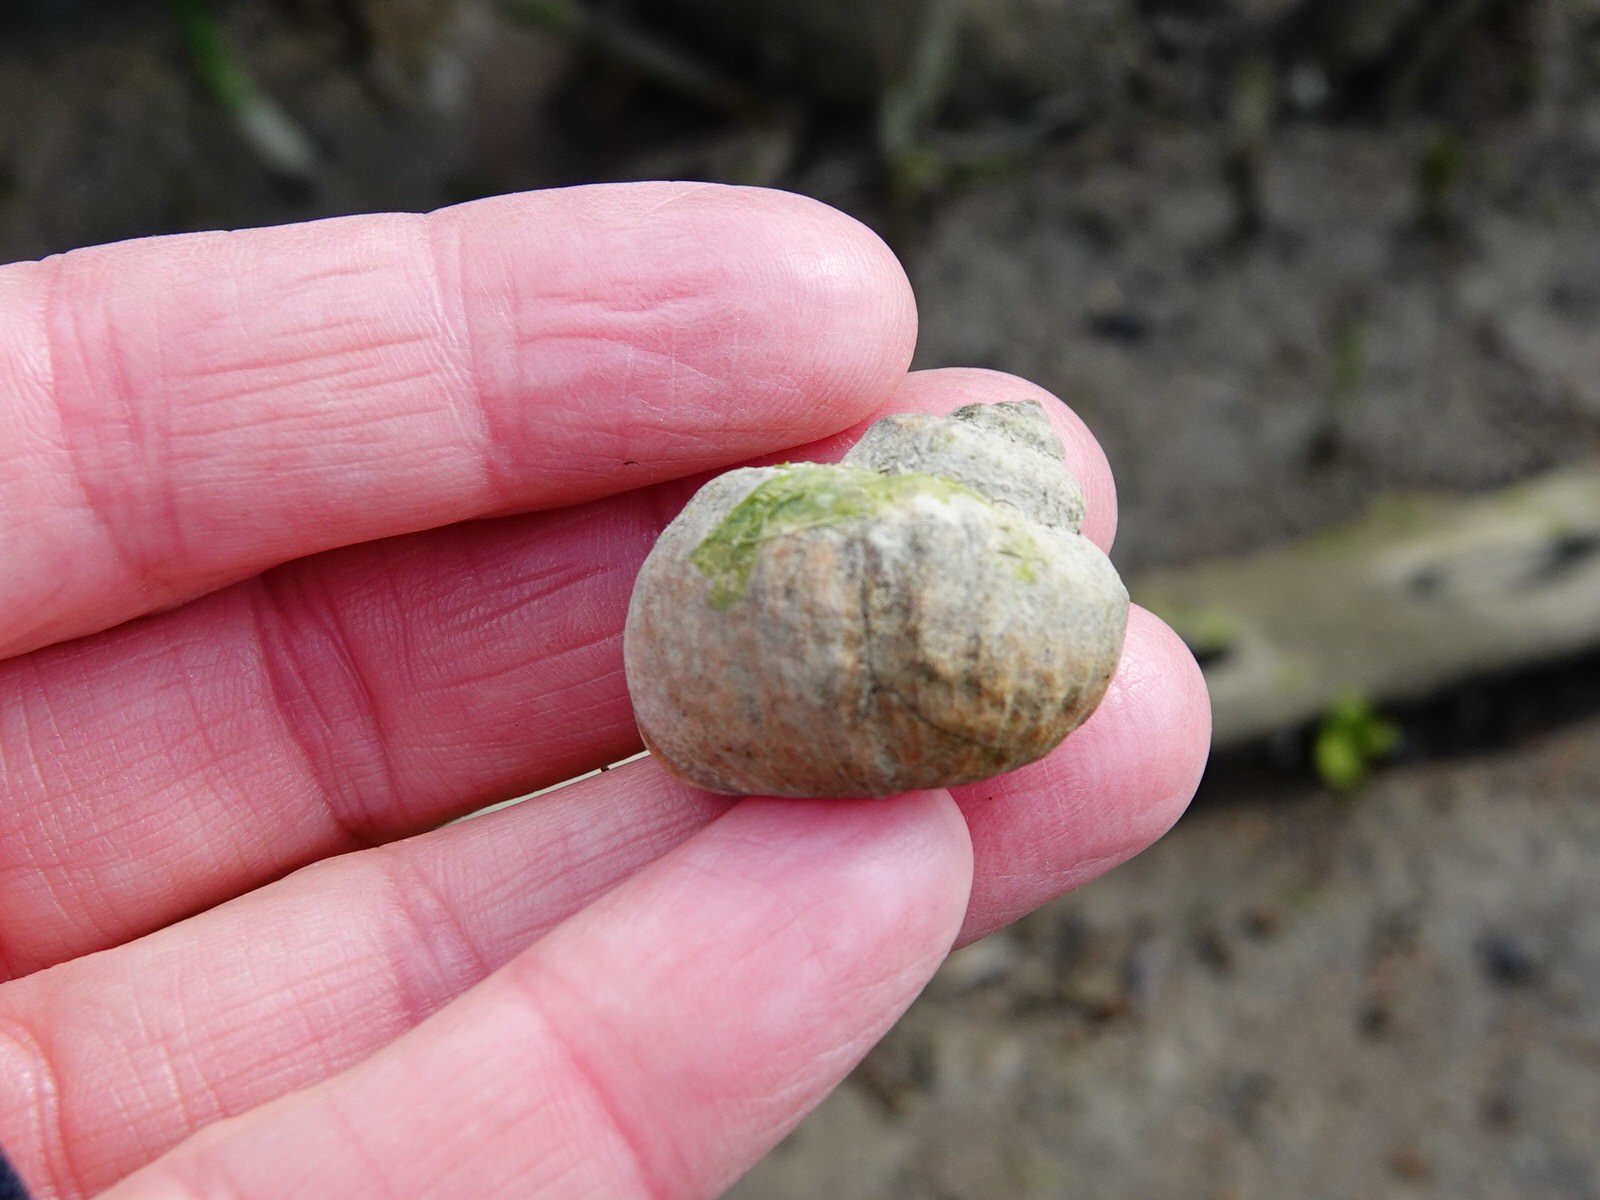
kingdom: Animalia
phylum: Mollusca
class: Gastropoda
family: Amphibolidae
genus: Amphibola
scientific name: Amphibola crenata
